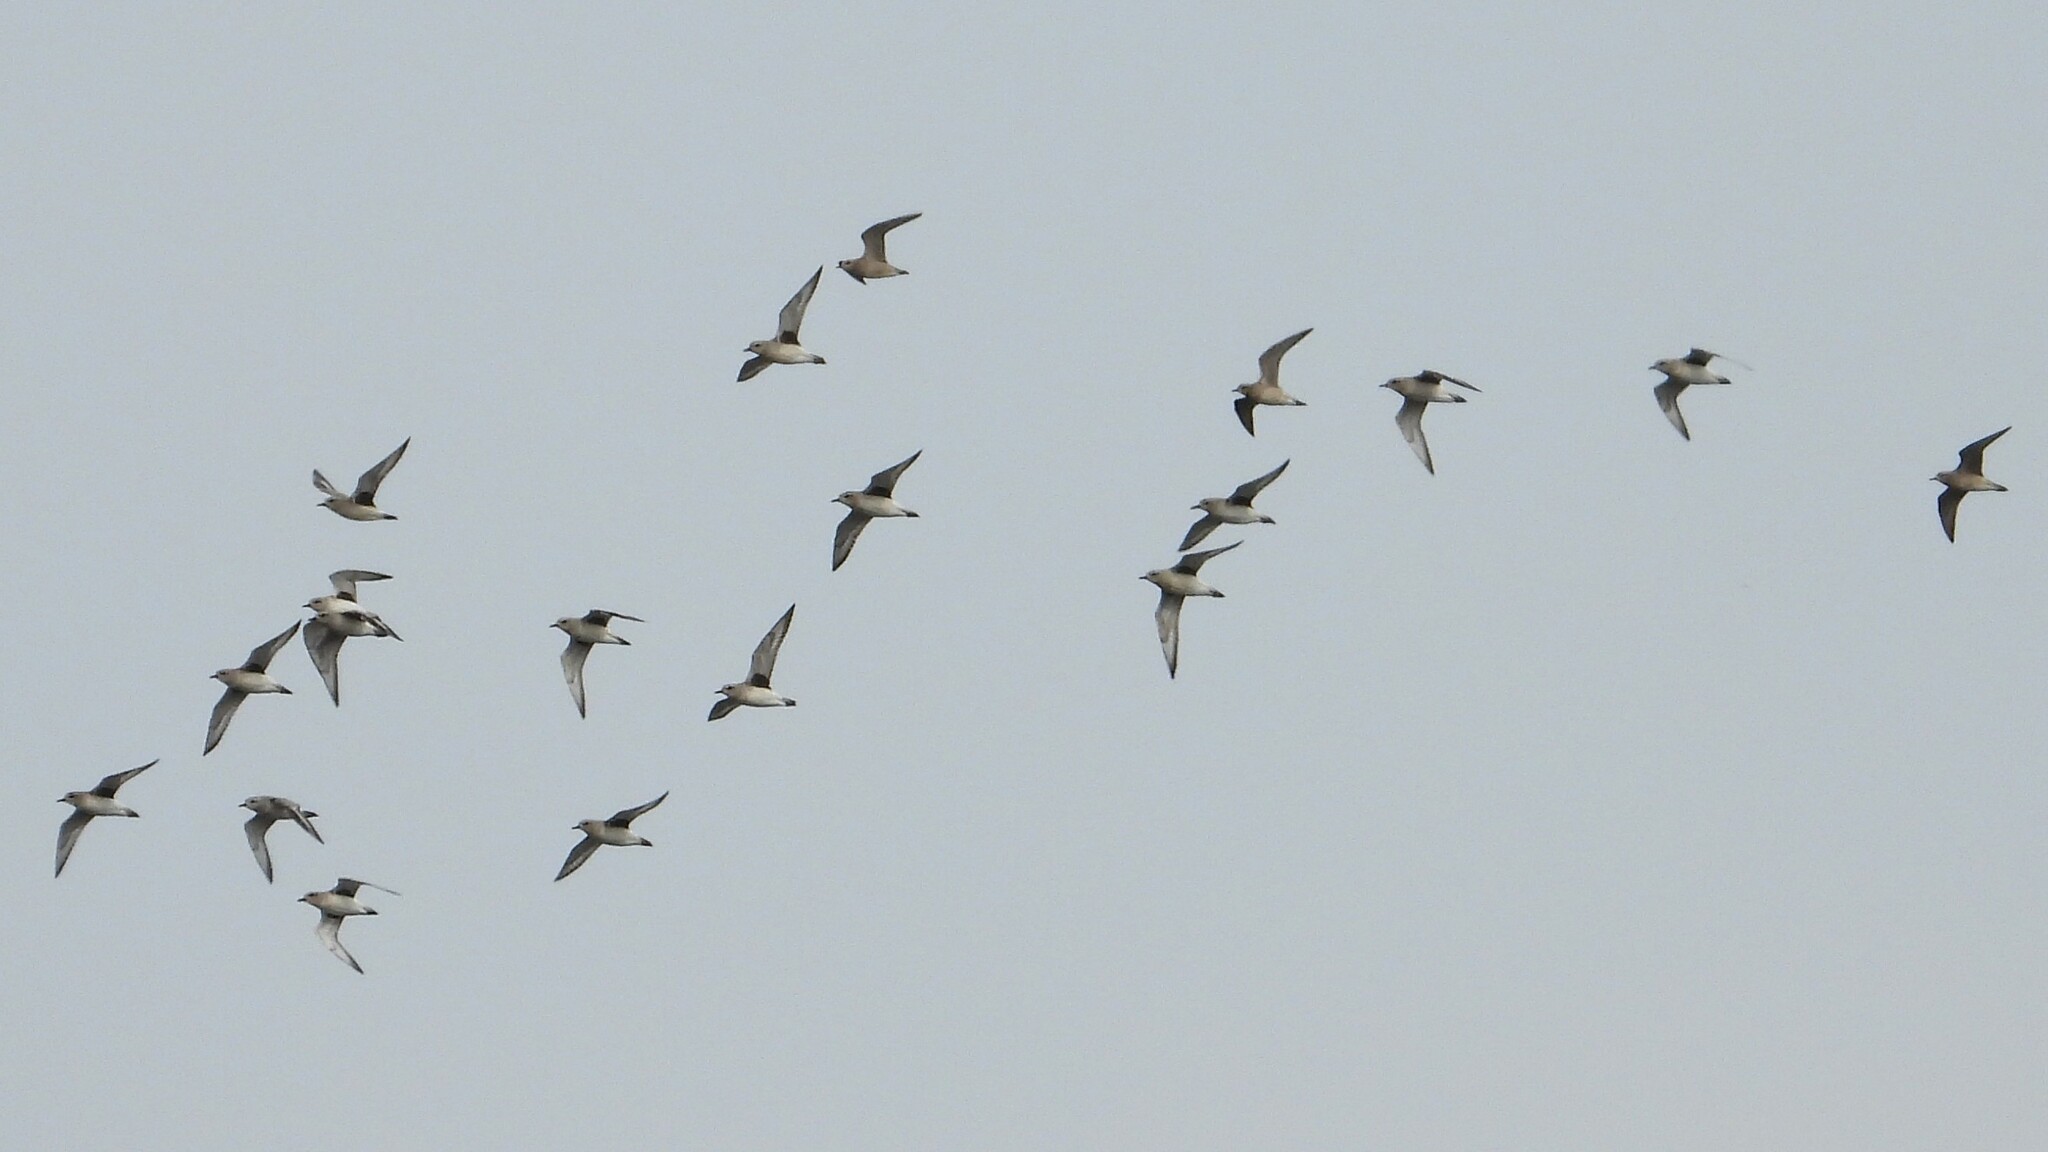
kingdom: Animalia
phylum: Chordata
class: Aves
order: Charadriiformes
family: Charadriidae
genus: Pluvialis
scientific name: Pluvialis squatarola
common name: Grey plover
